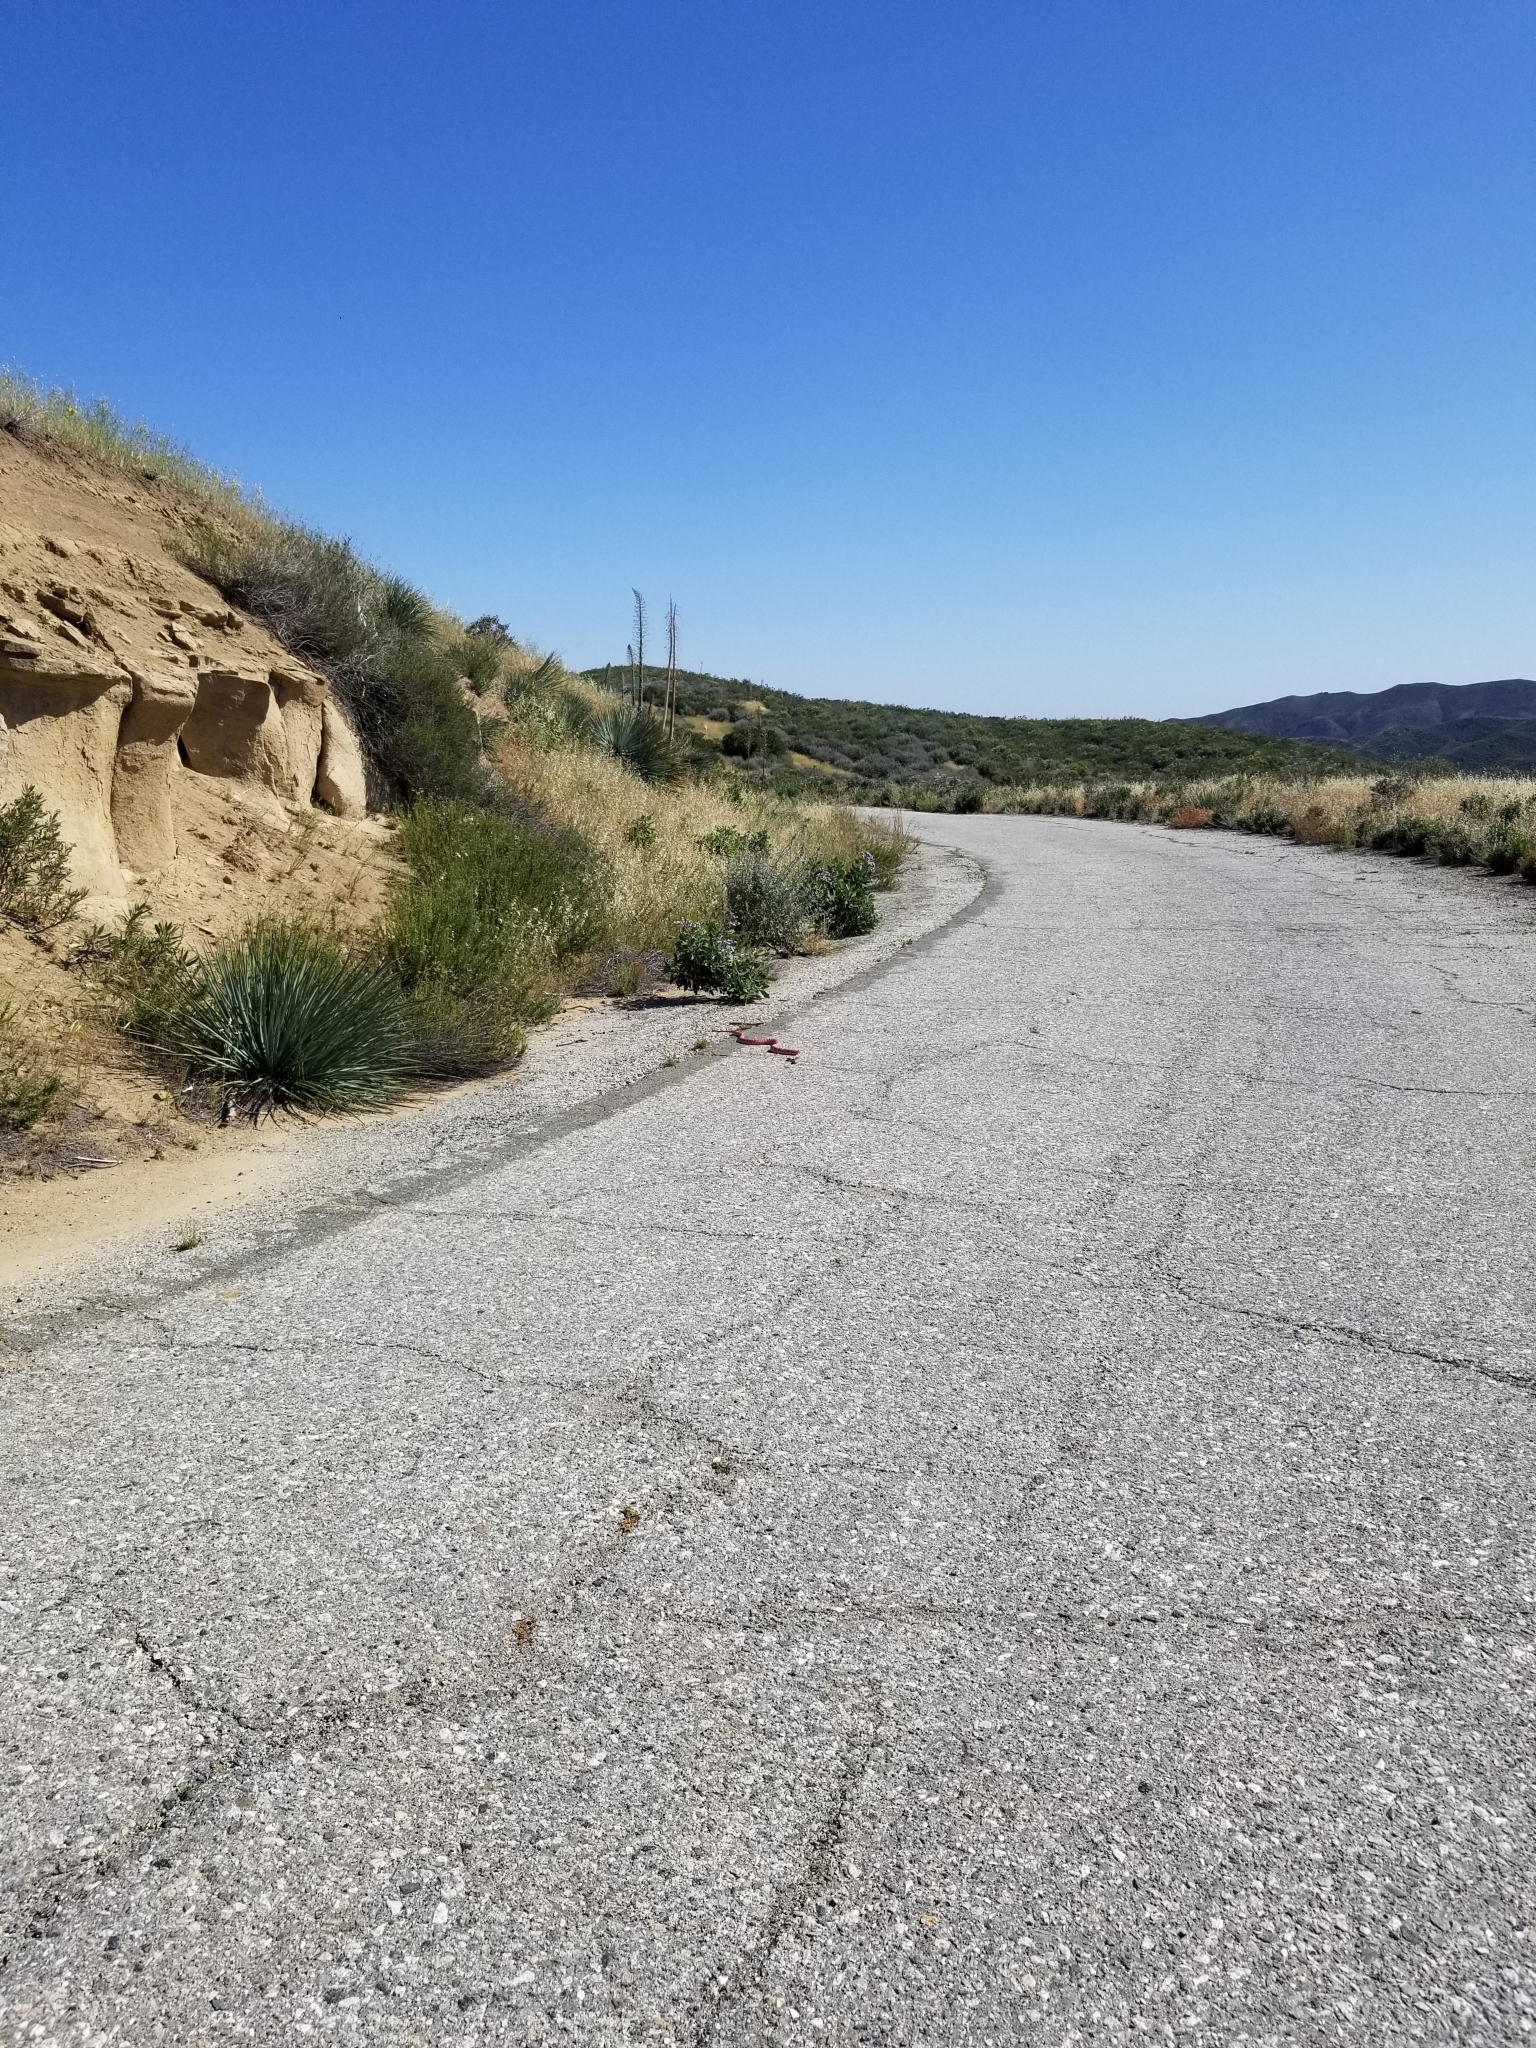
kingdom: Animalia
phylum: Chordata
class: Squamata
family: Colubridae
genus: Masticophis
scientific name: Masticophis flagellum
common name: Coachwhip
